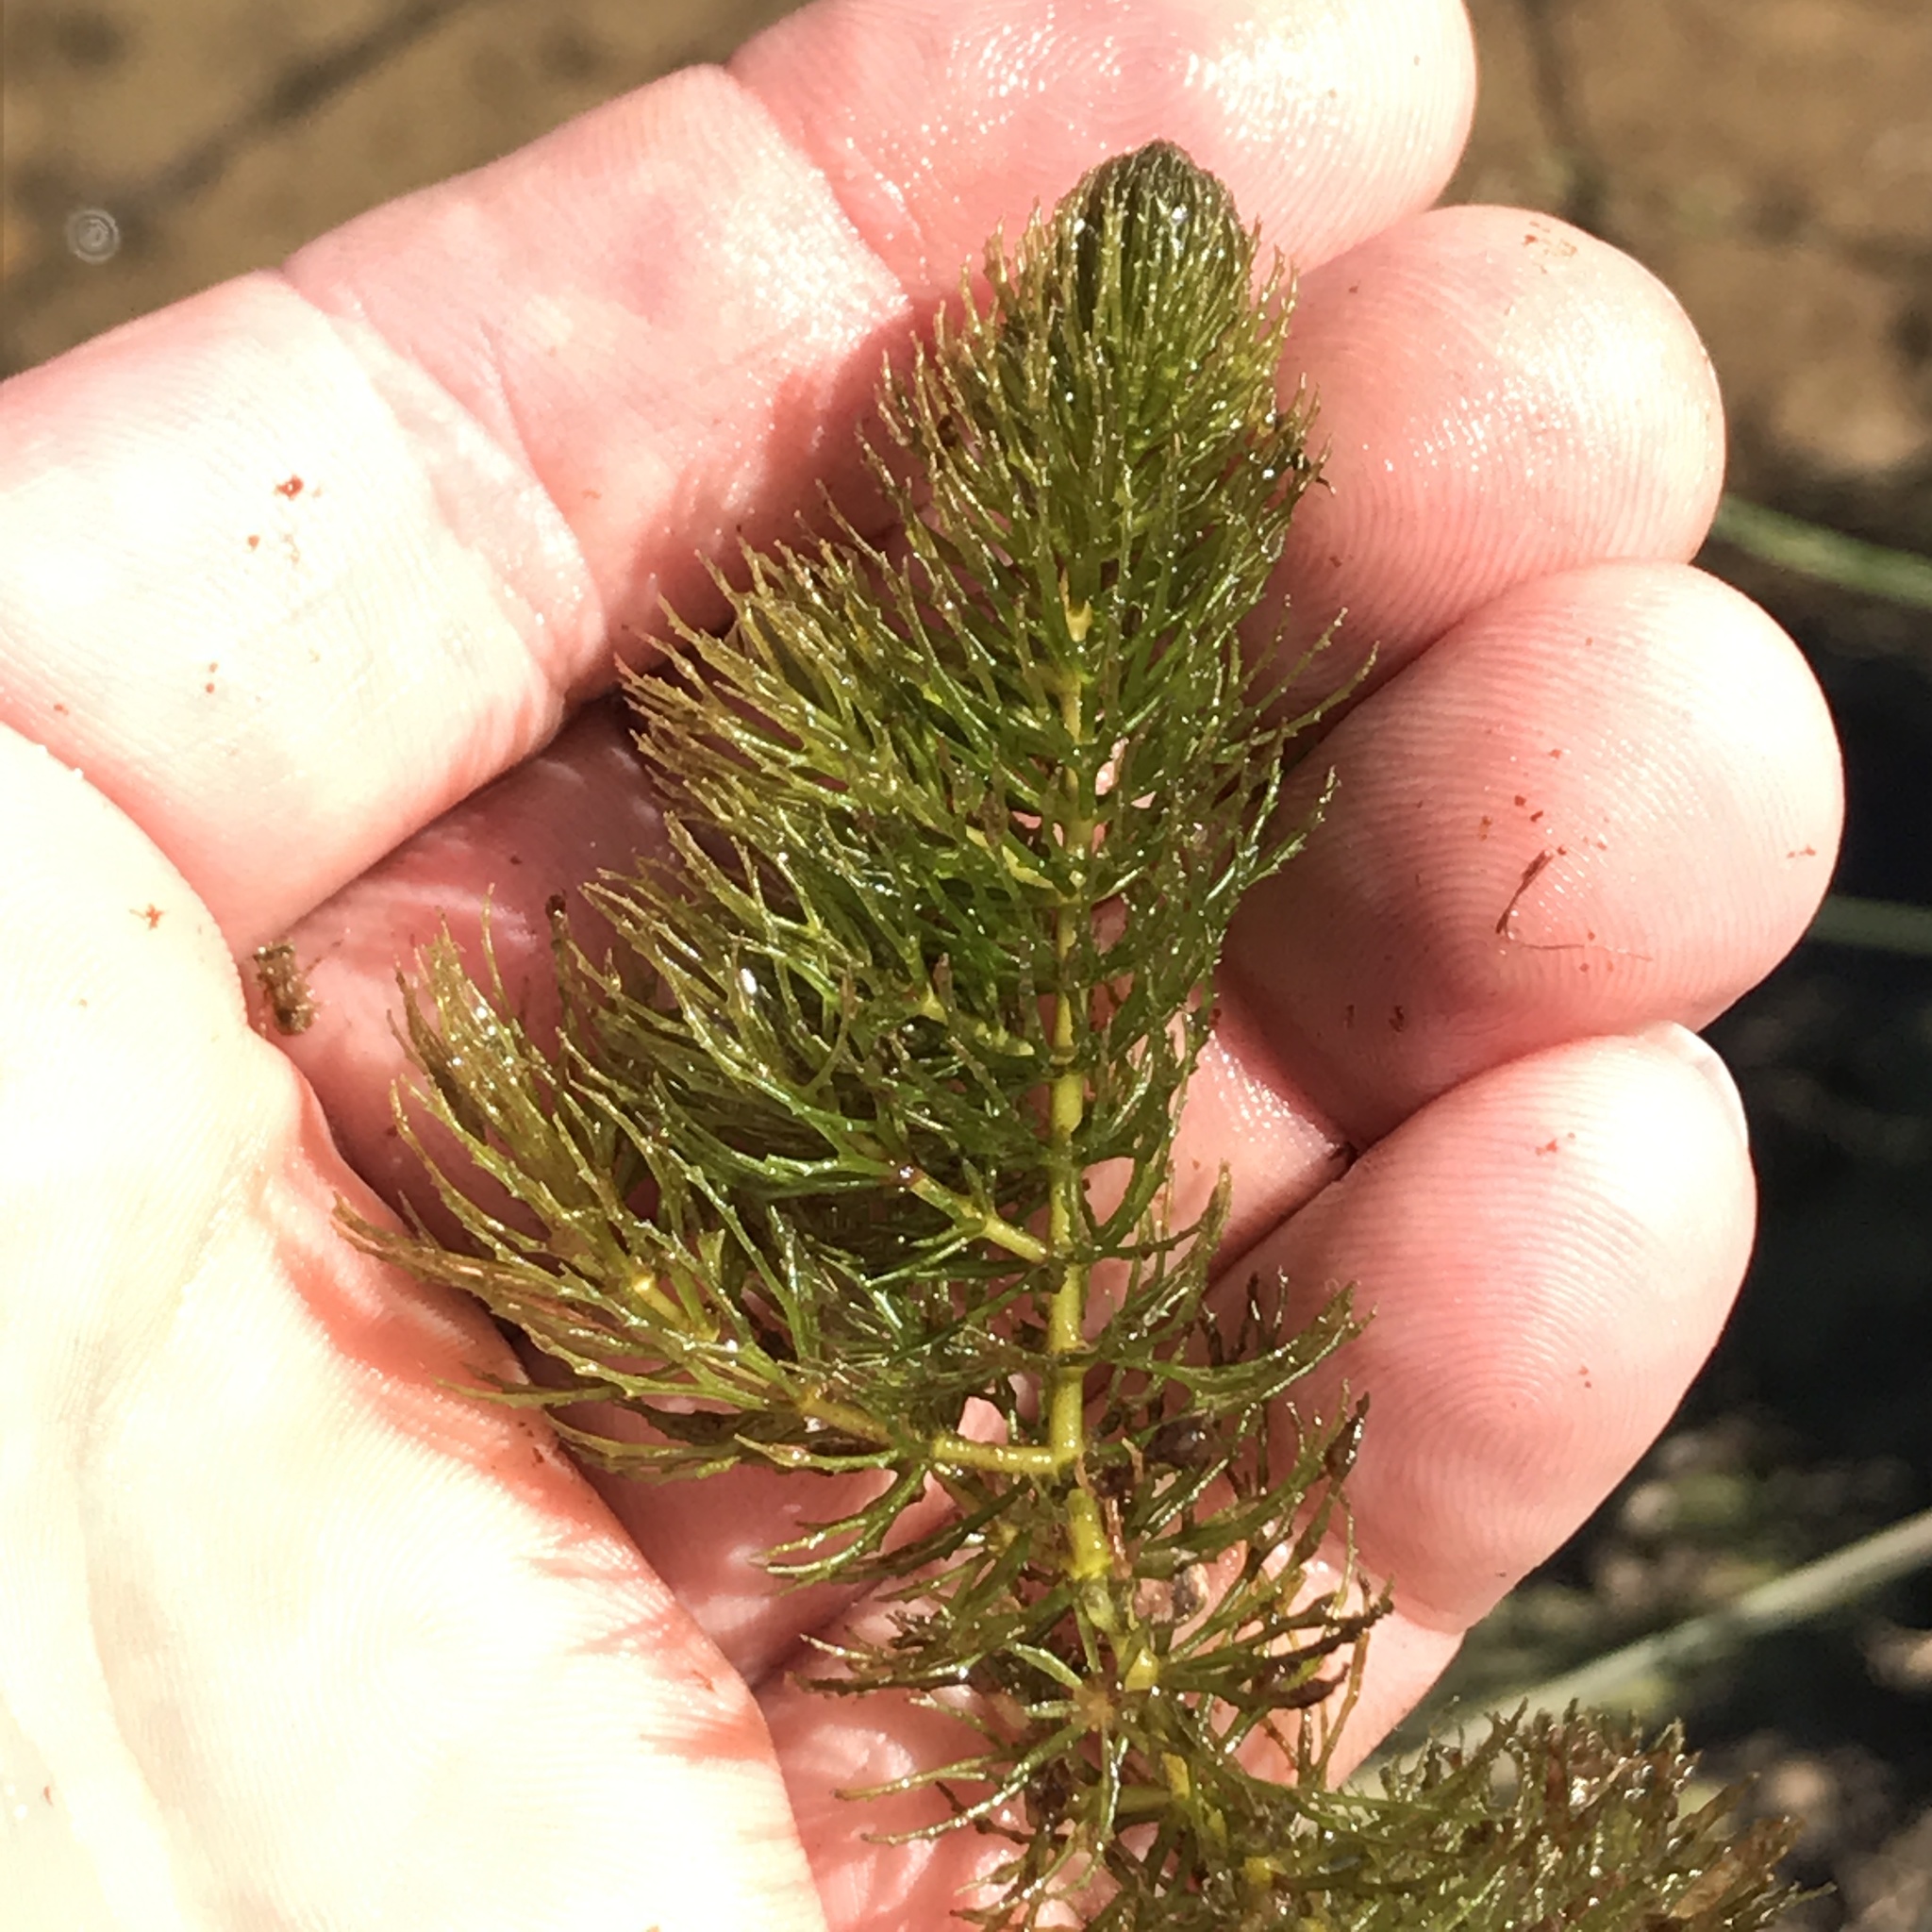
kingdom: Plantae
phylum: Tracheophyta
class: Magnoliopsida
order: Ceratophyllales
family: Ceratophyllaceae
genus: Ceratophyllum
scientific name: Ceratophyllum demersum
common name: Rigid hornwort
